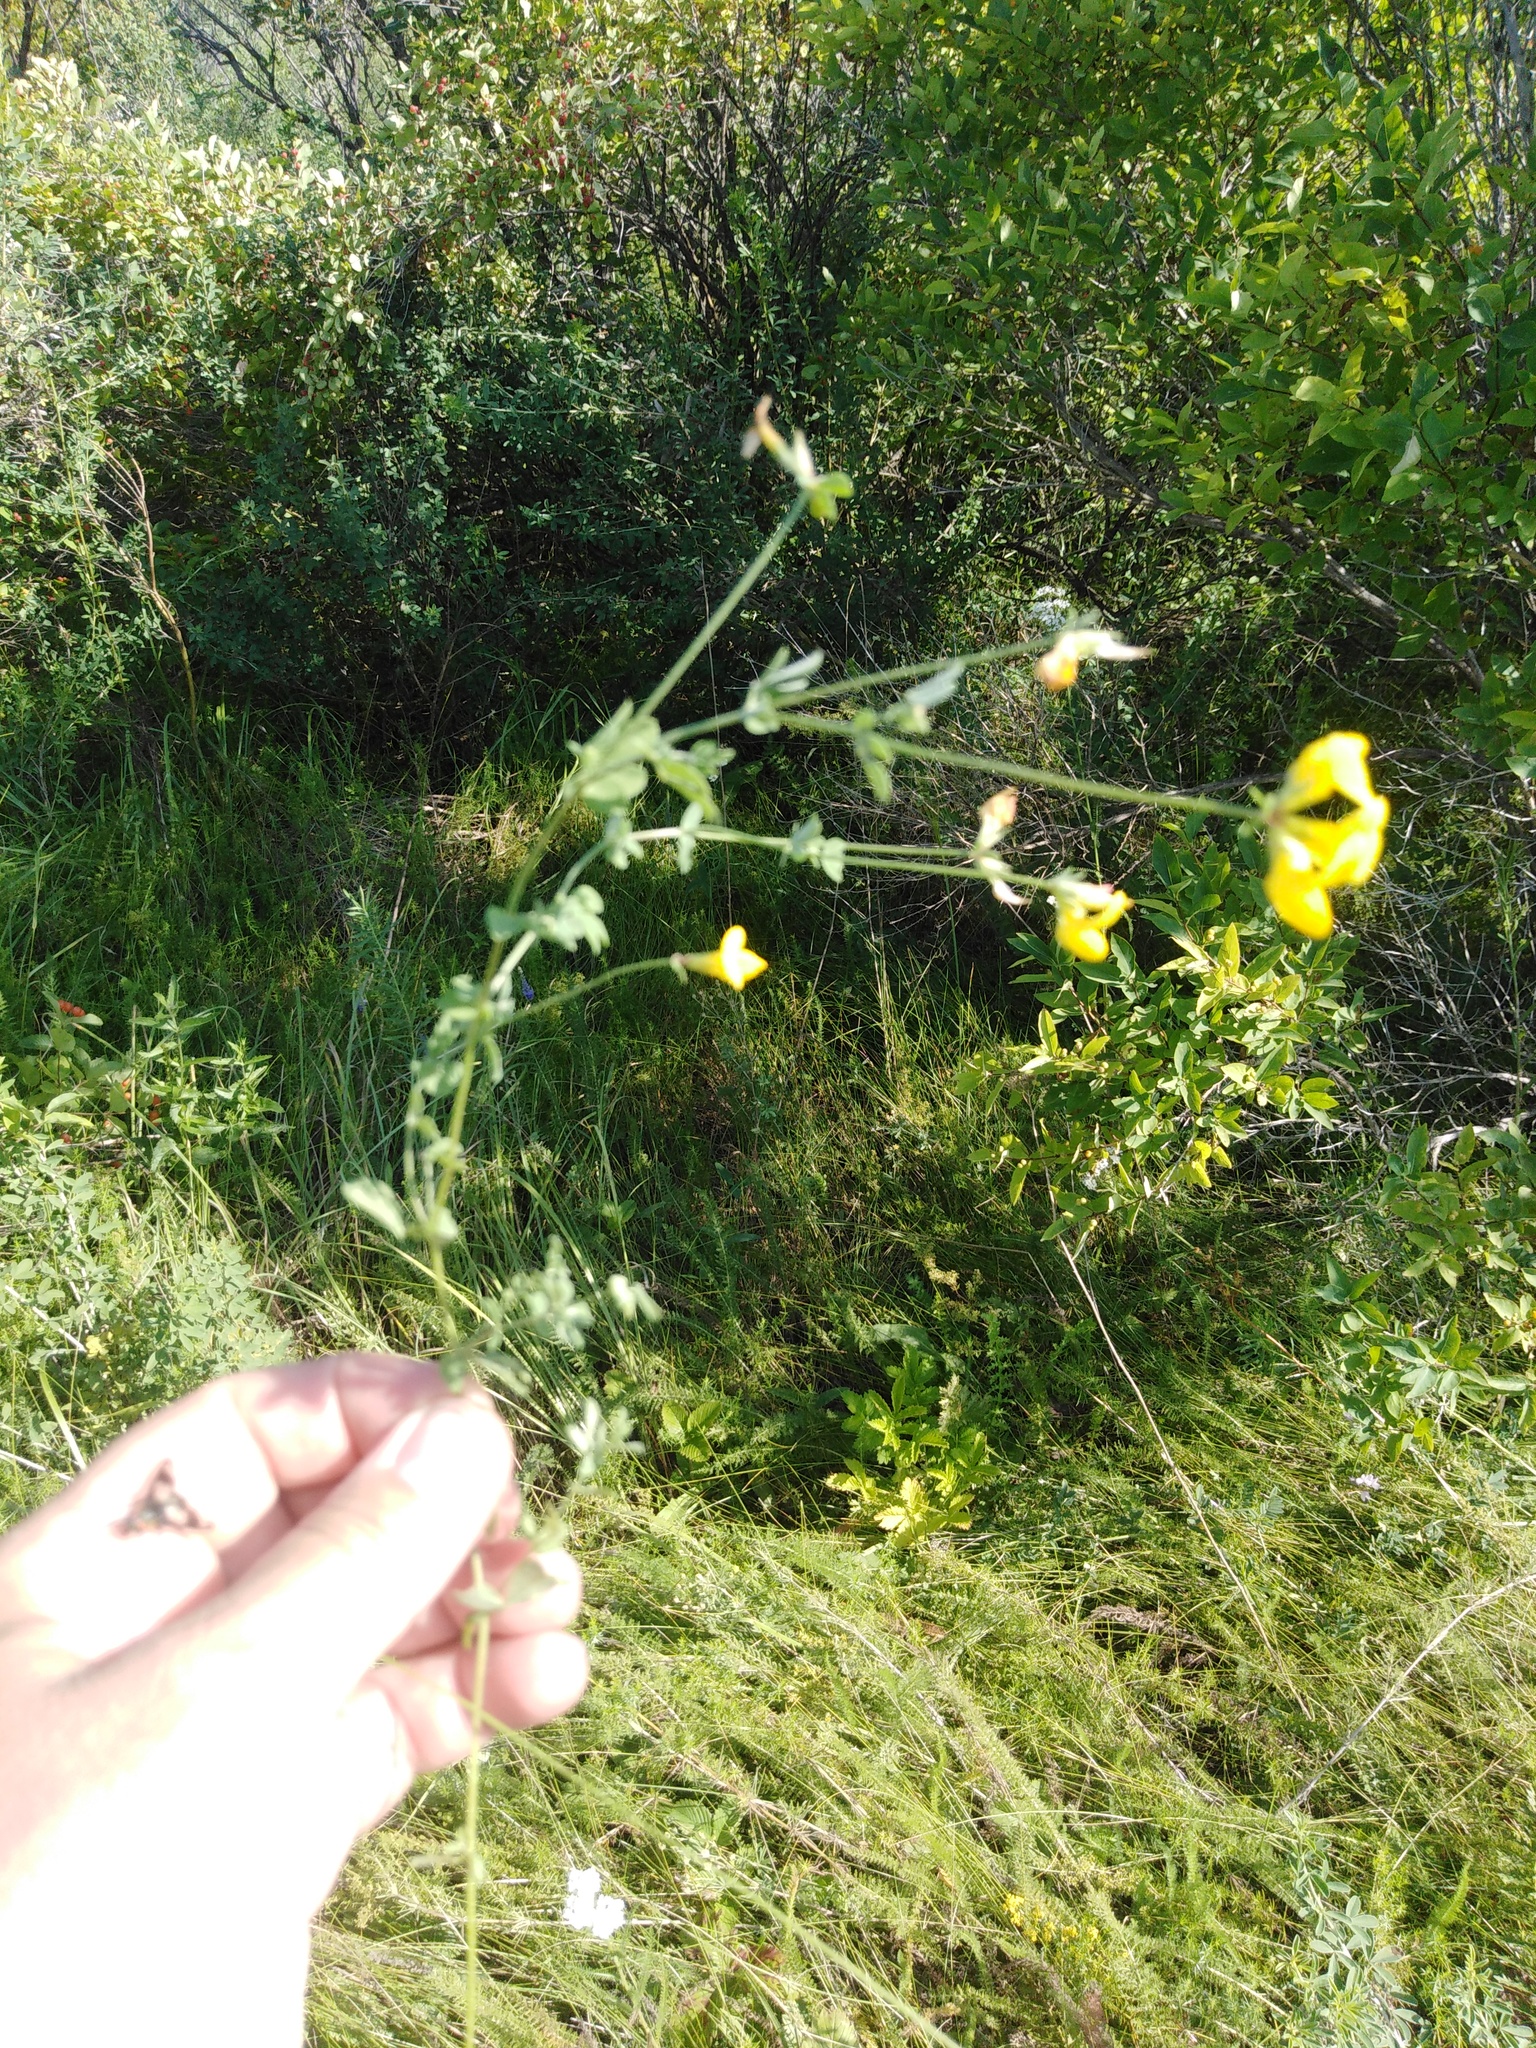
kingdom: Plantae
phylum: Tracheophyta
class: Magnoliopsida
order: Fabales
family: Fabaceae
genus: Lotus
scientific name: Lotus corniculatus
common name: Common bird's-foot-trefoil
